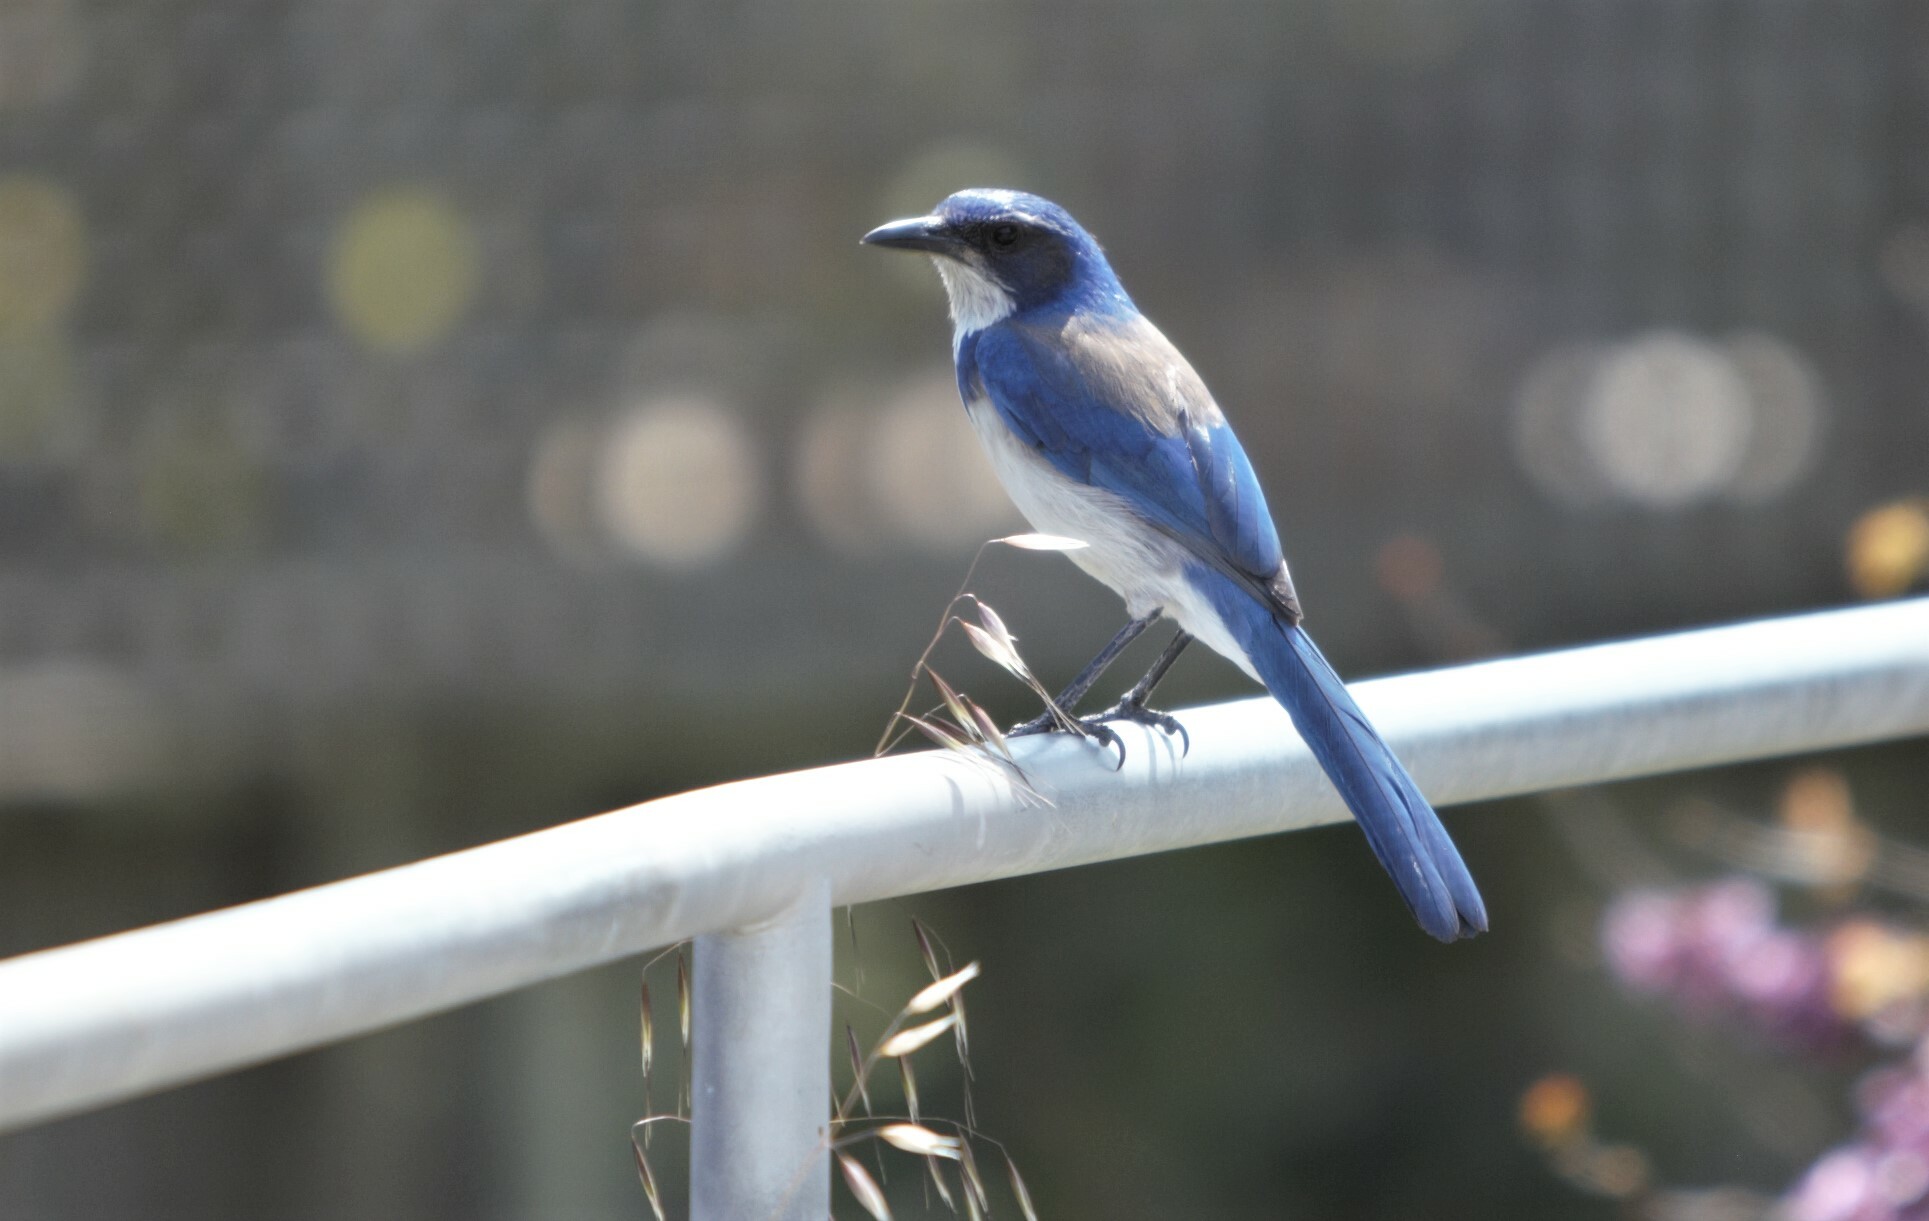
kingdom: Animalia
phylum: Chordata
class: Aves
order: Passeriformes
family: Corvidae
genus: Aphelocoma
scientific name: Aphelocoma californica
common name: California scrub-jay
